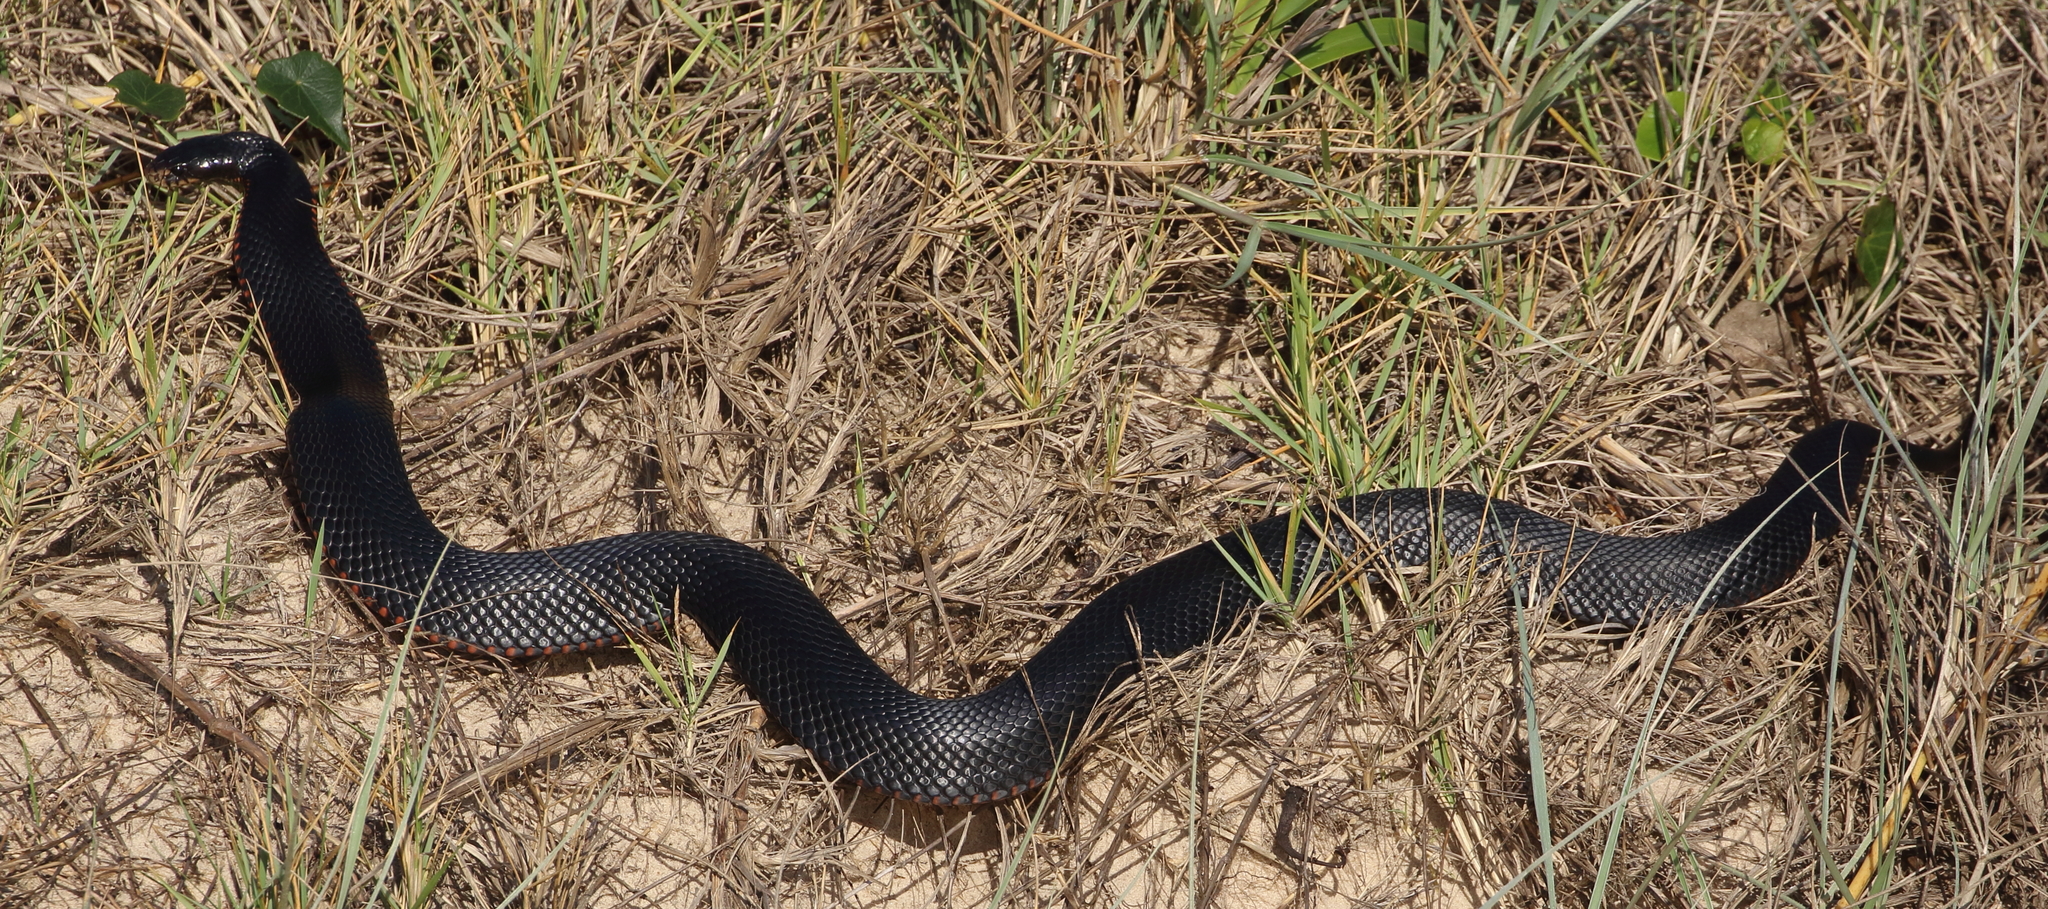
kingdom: Animalia
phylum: Chordata
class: Squamata
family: Elapidae
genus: Pseudechis
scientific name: Pseudechis porphyriacus
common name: Australian black snake
